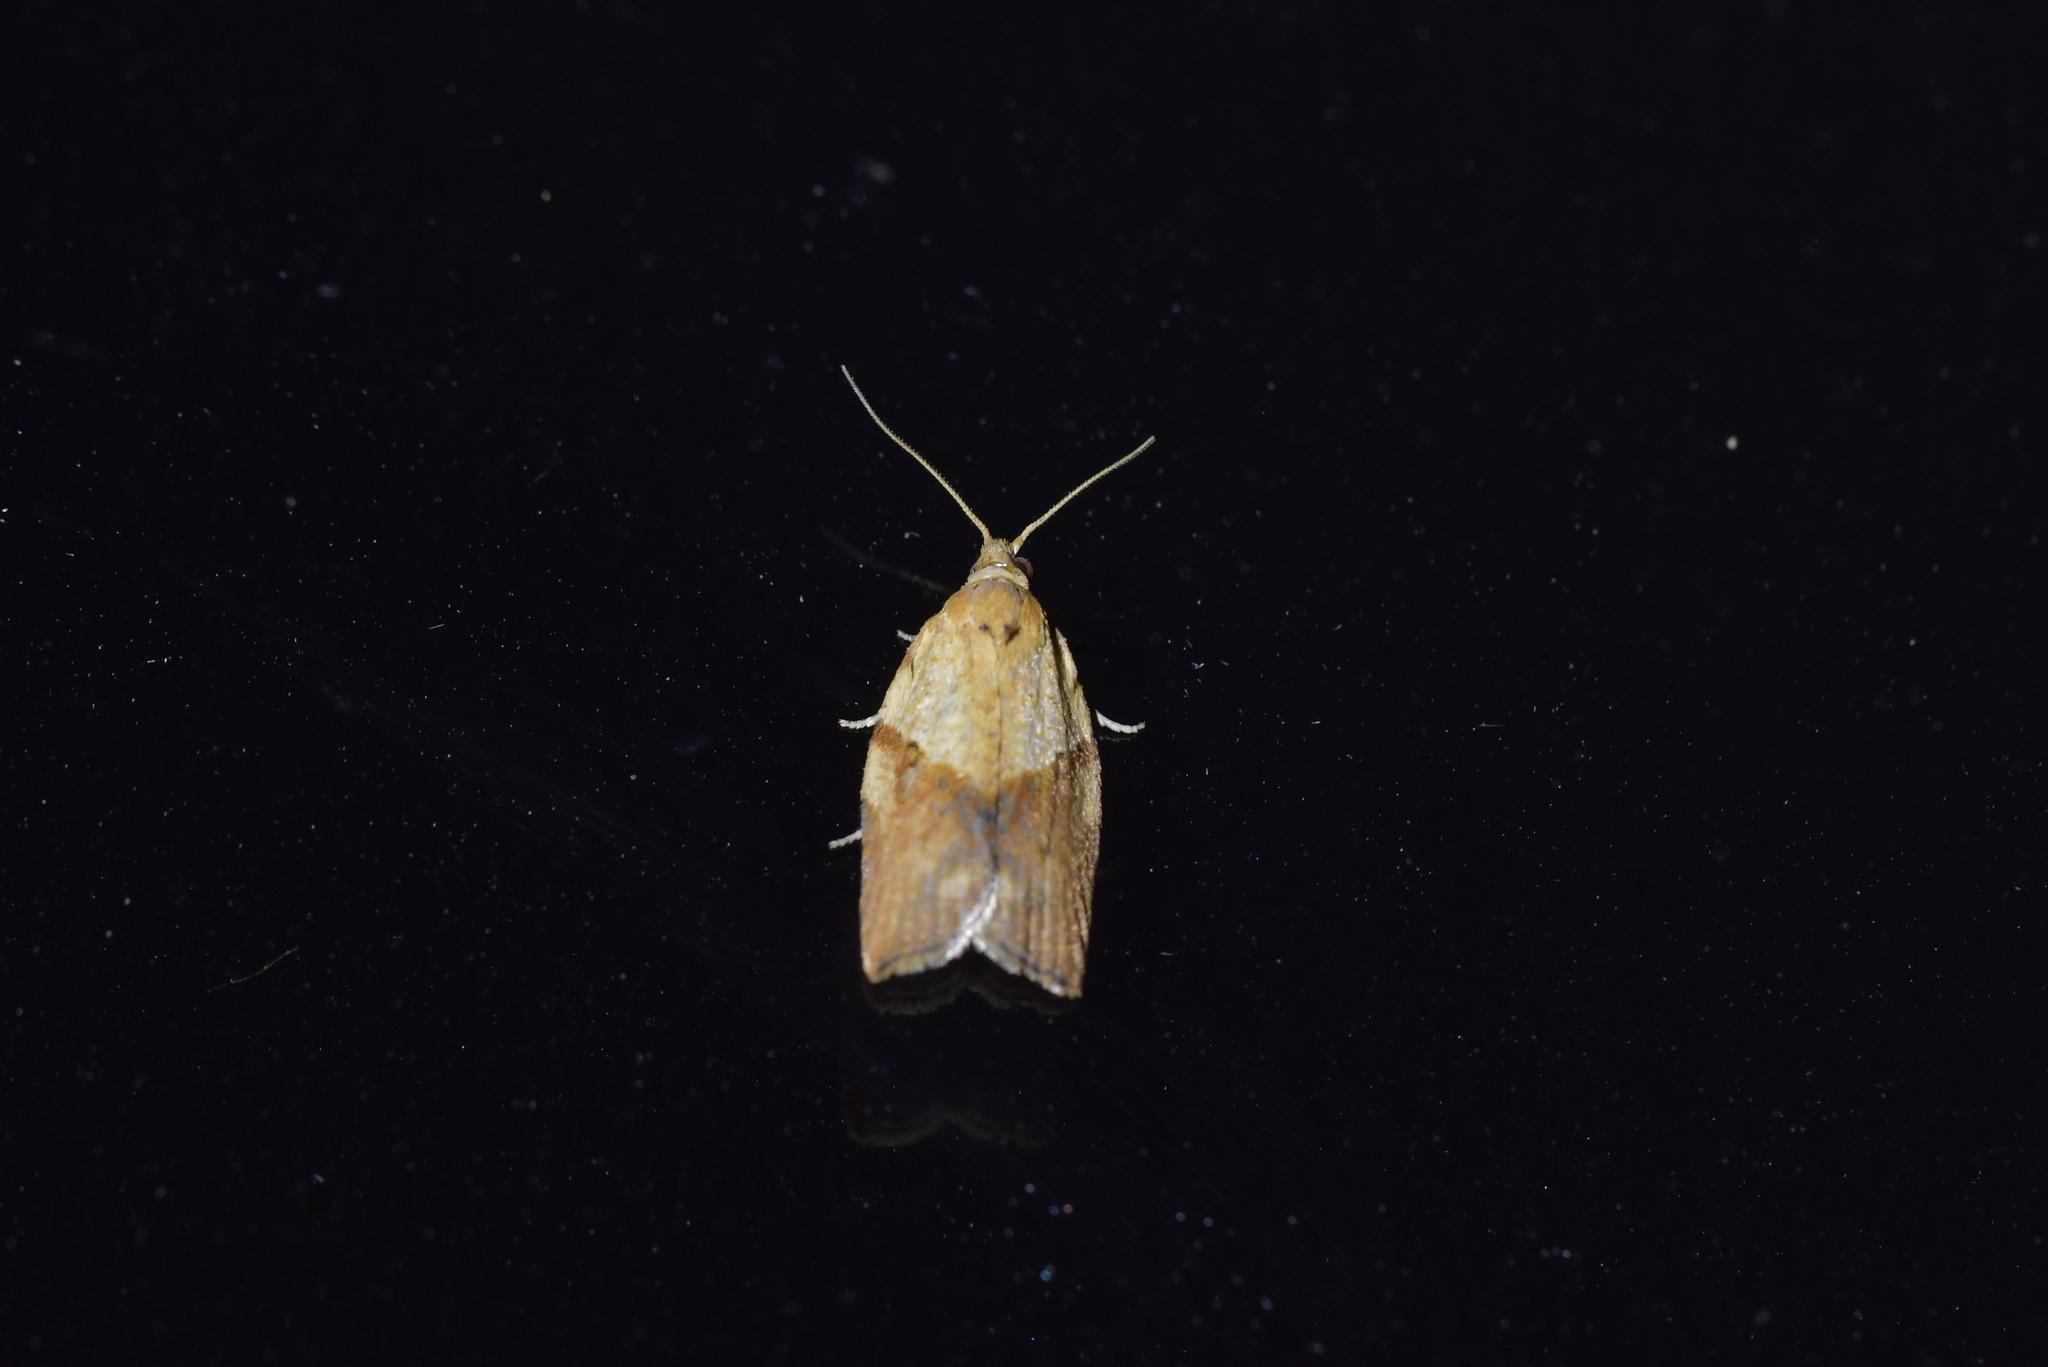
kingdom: Animalia
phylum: Arthropoda
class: Insecta
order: Lepidoptera
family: Tortricidae
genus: Epiphyas
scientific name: Epiphyas postvittana
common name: Light brown apple moth
